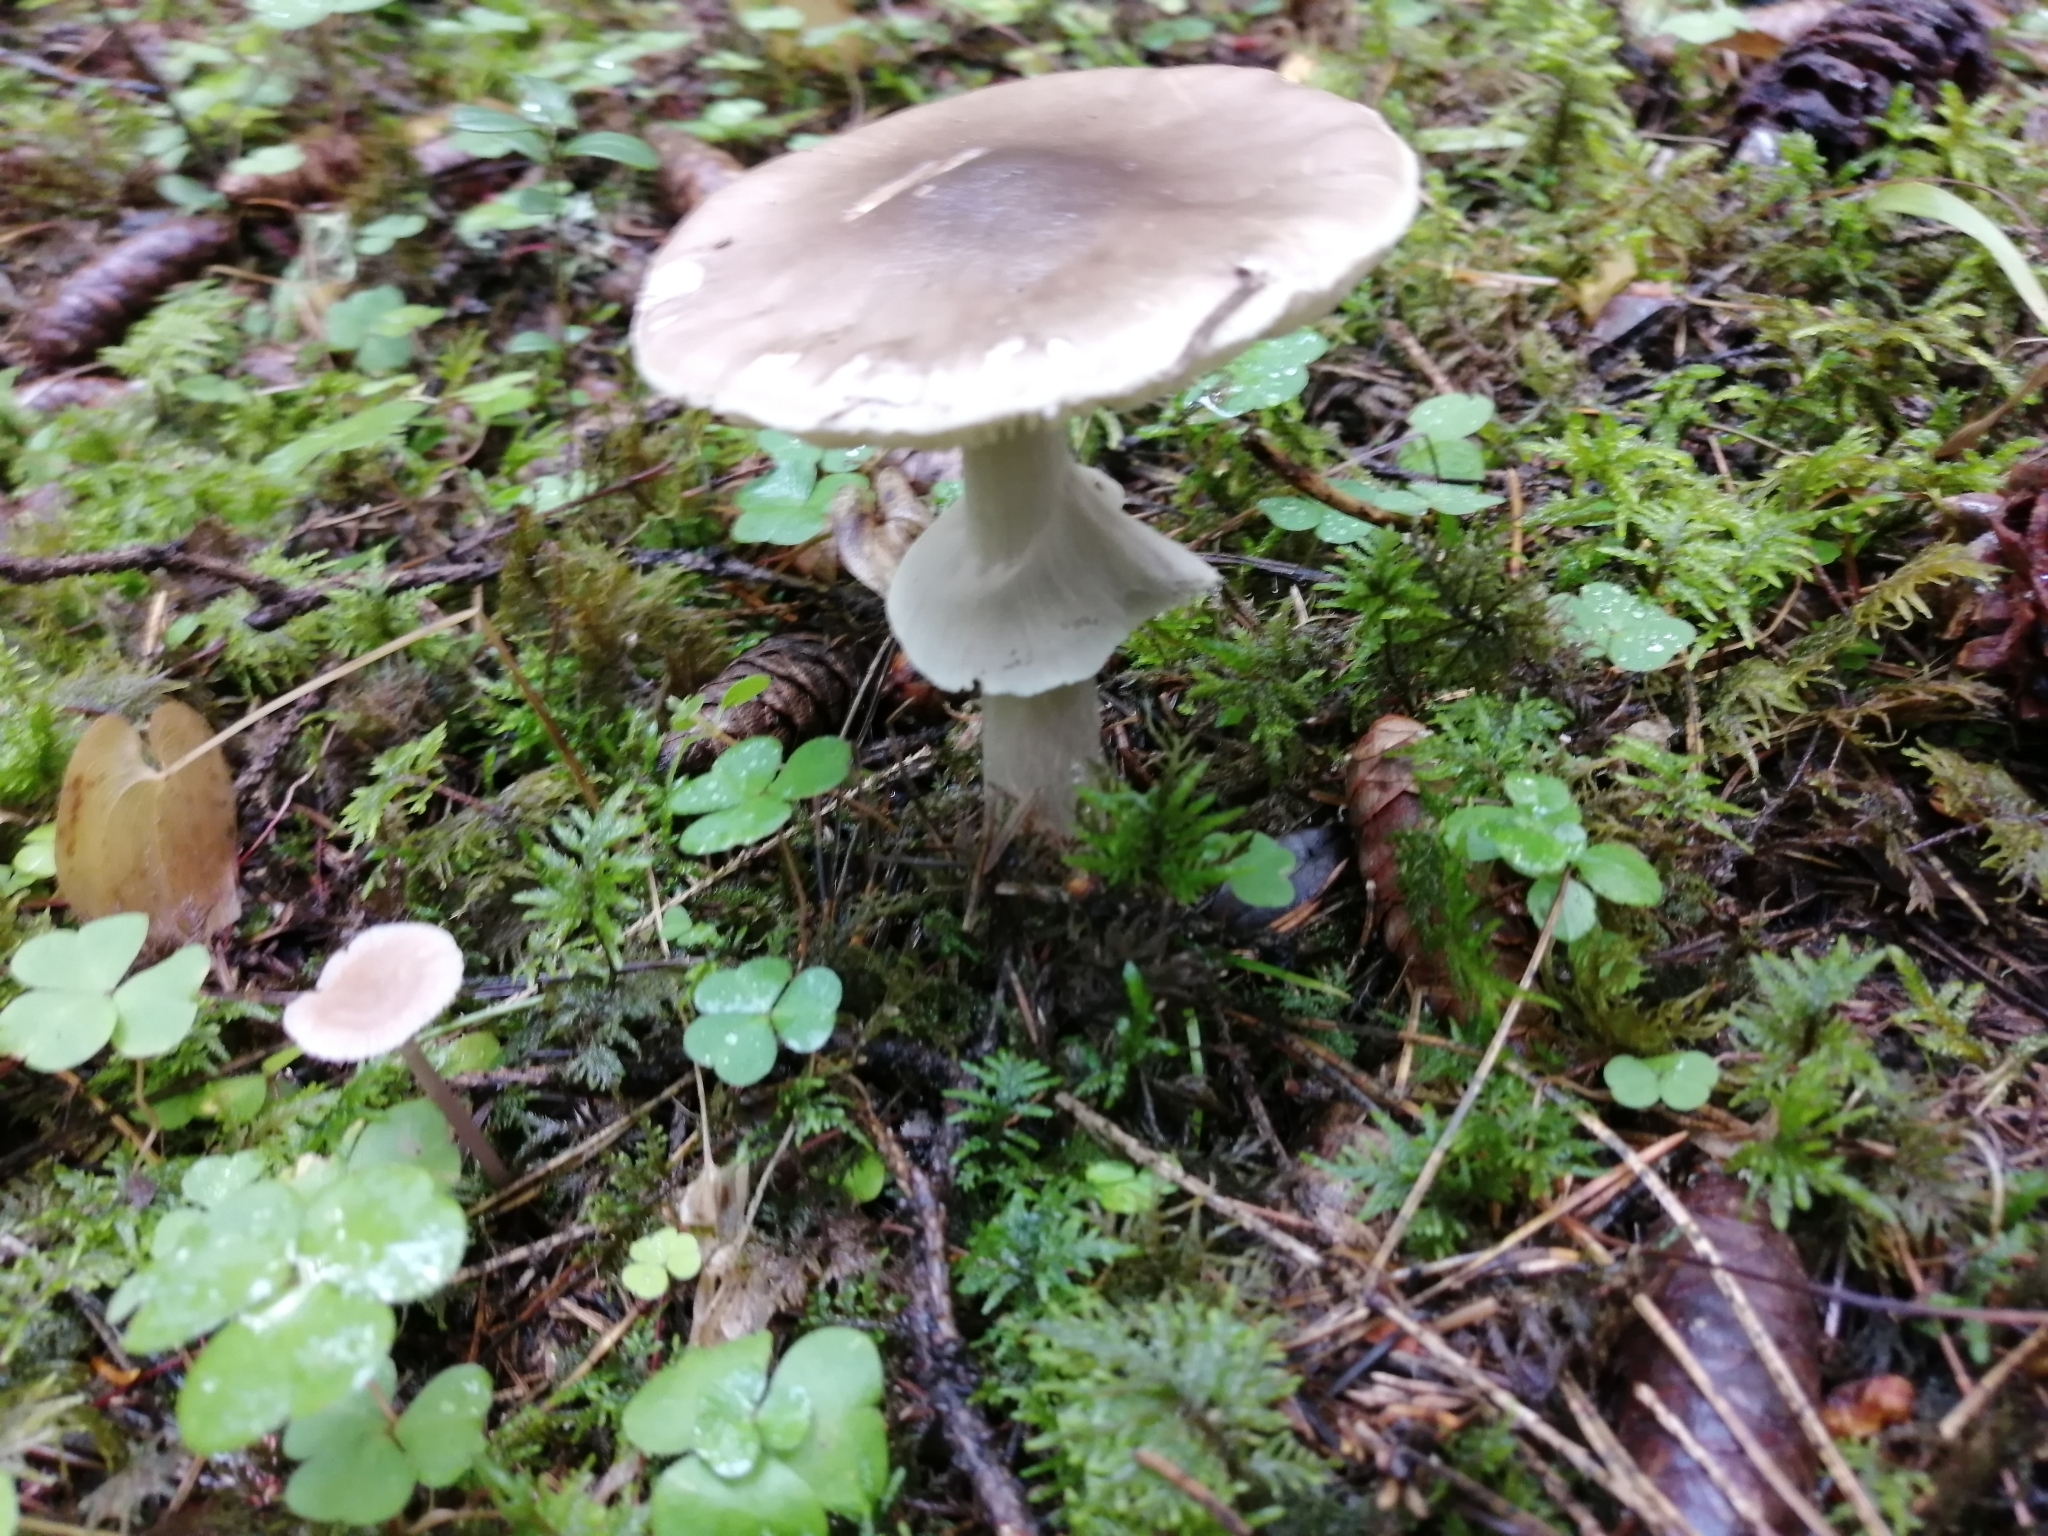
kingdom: Fungi
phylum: Basidiomycota
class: Agaricomycetes
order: Agaricales
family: Amanitaceae
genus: Amanita
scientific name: Amanita porphyria
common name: Grey veiled amanita
